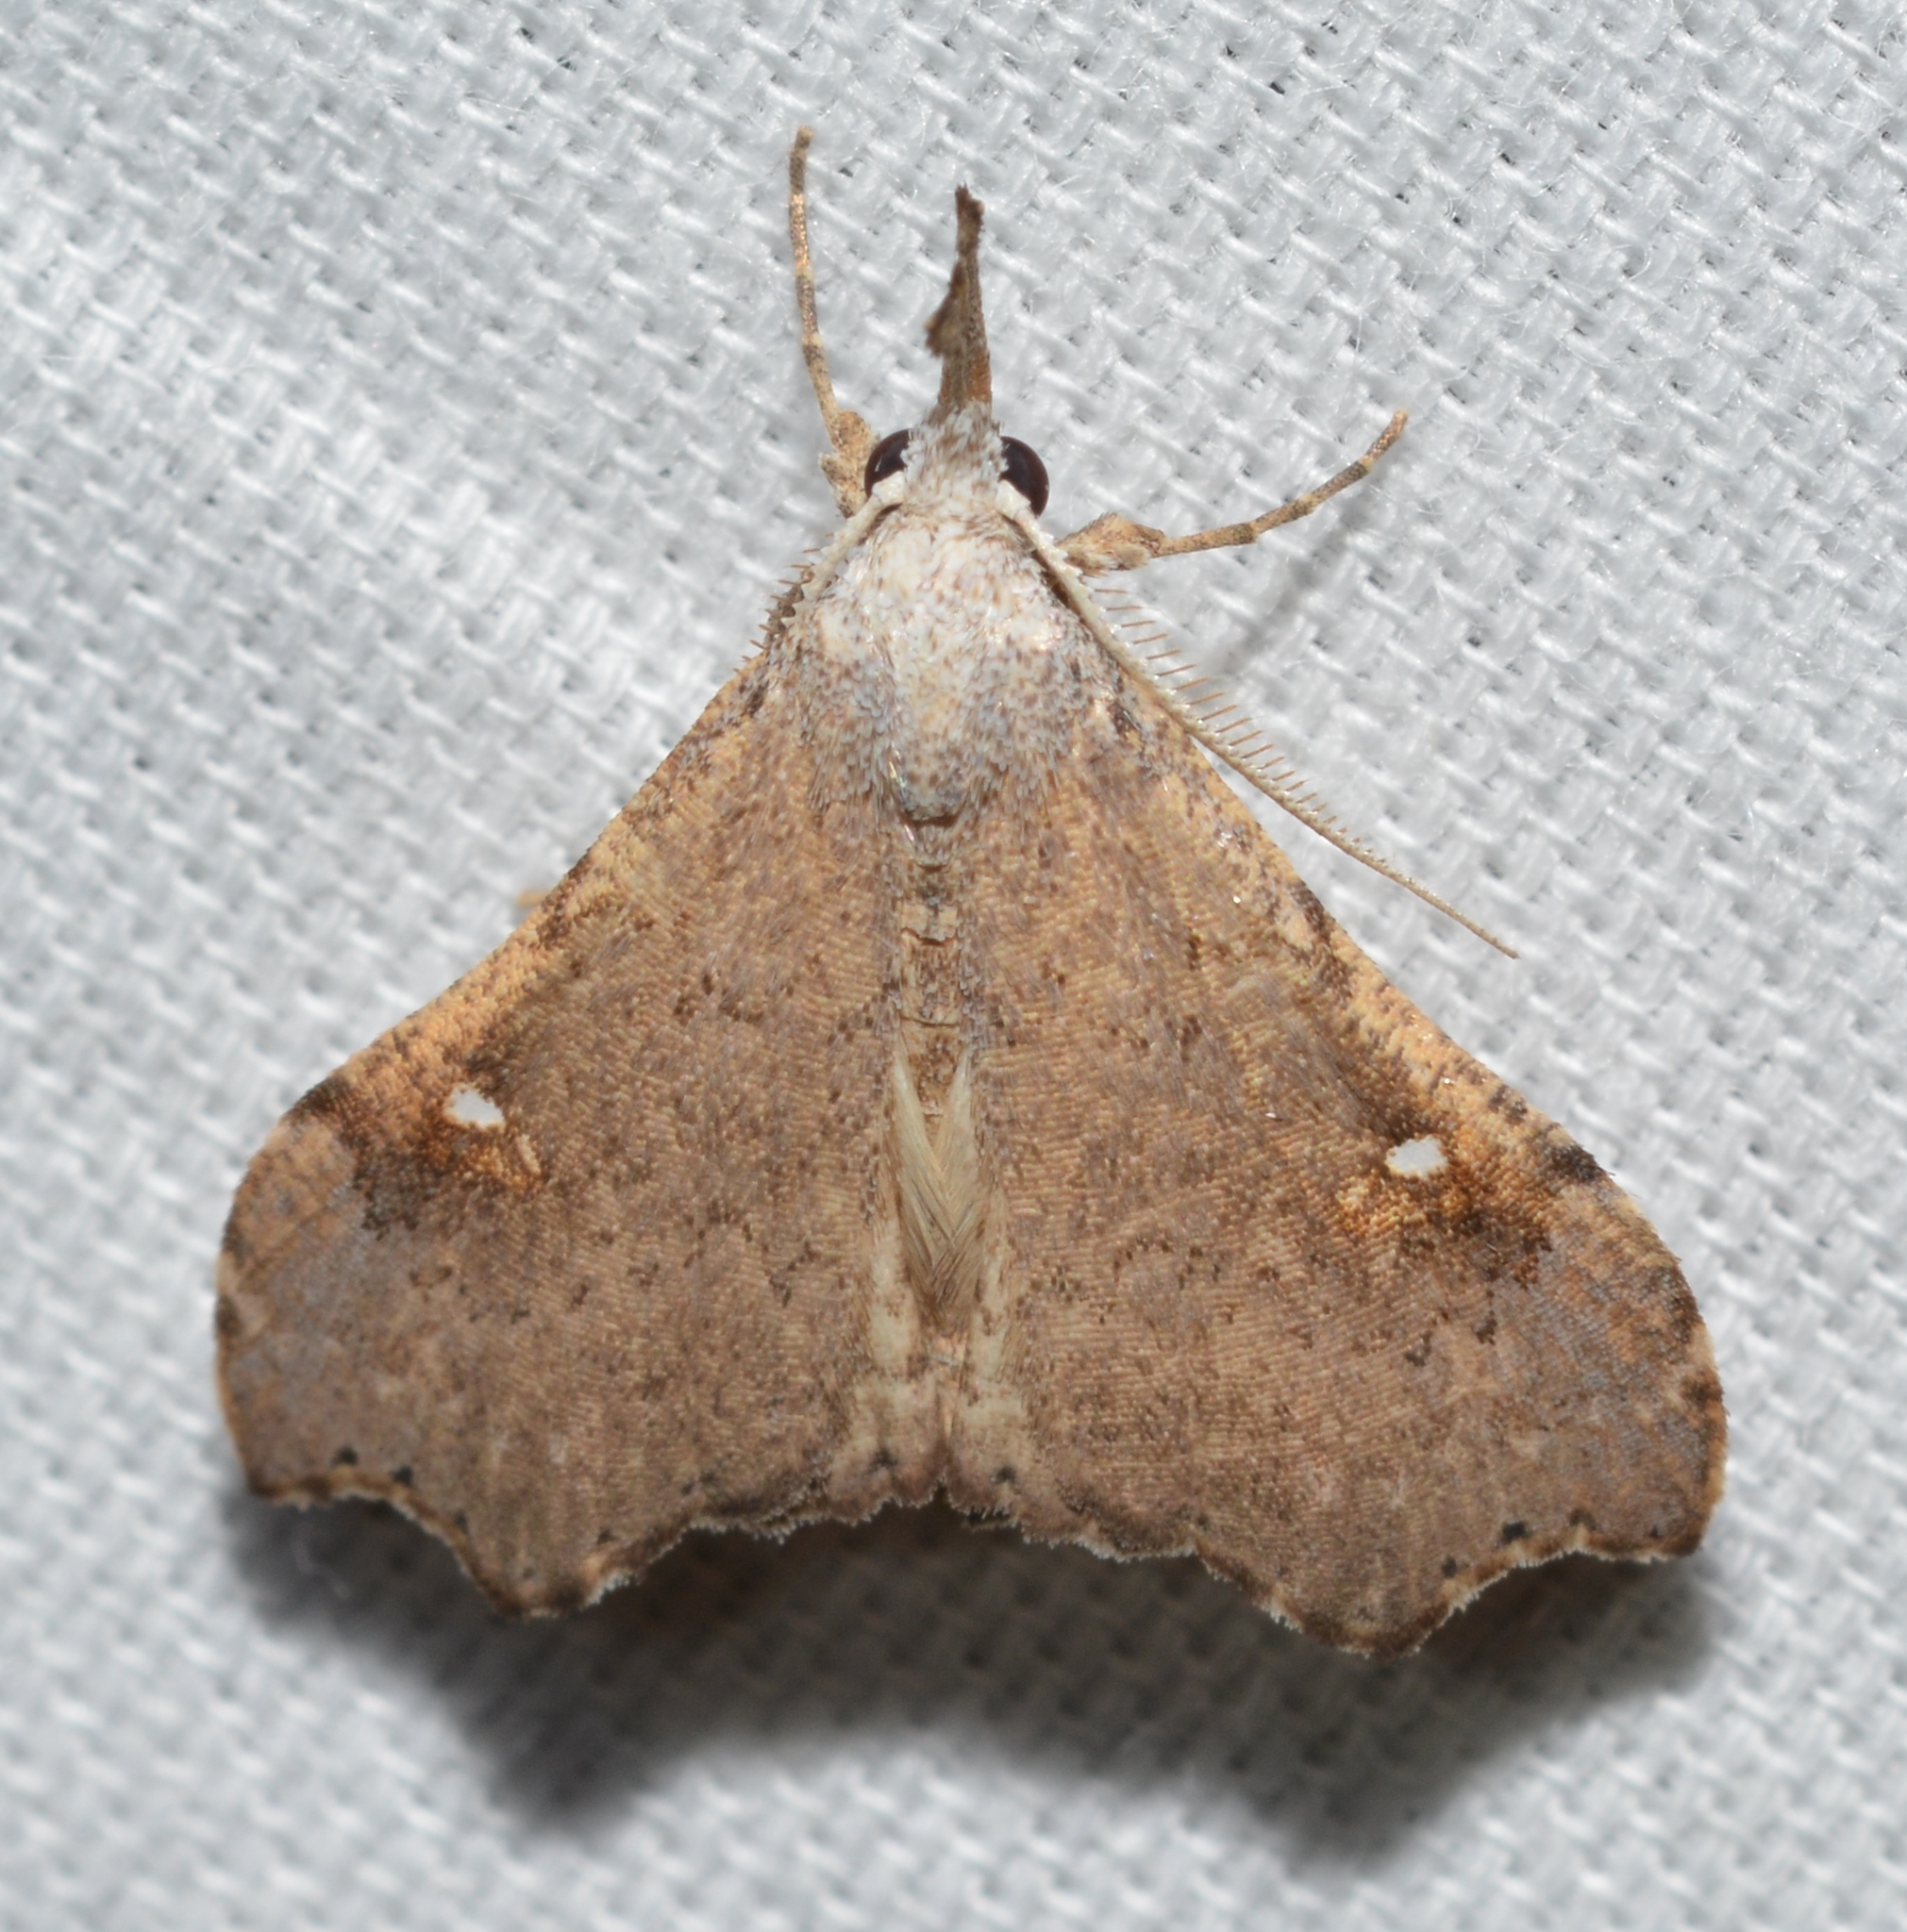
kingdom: Animalia
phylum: Arthropoda
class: Insecta
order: Lepidoptera
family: Erebidae
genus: Redectis
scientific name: Redectis vitrea
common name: White-spotted redectis
